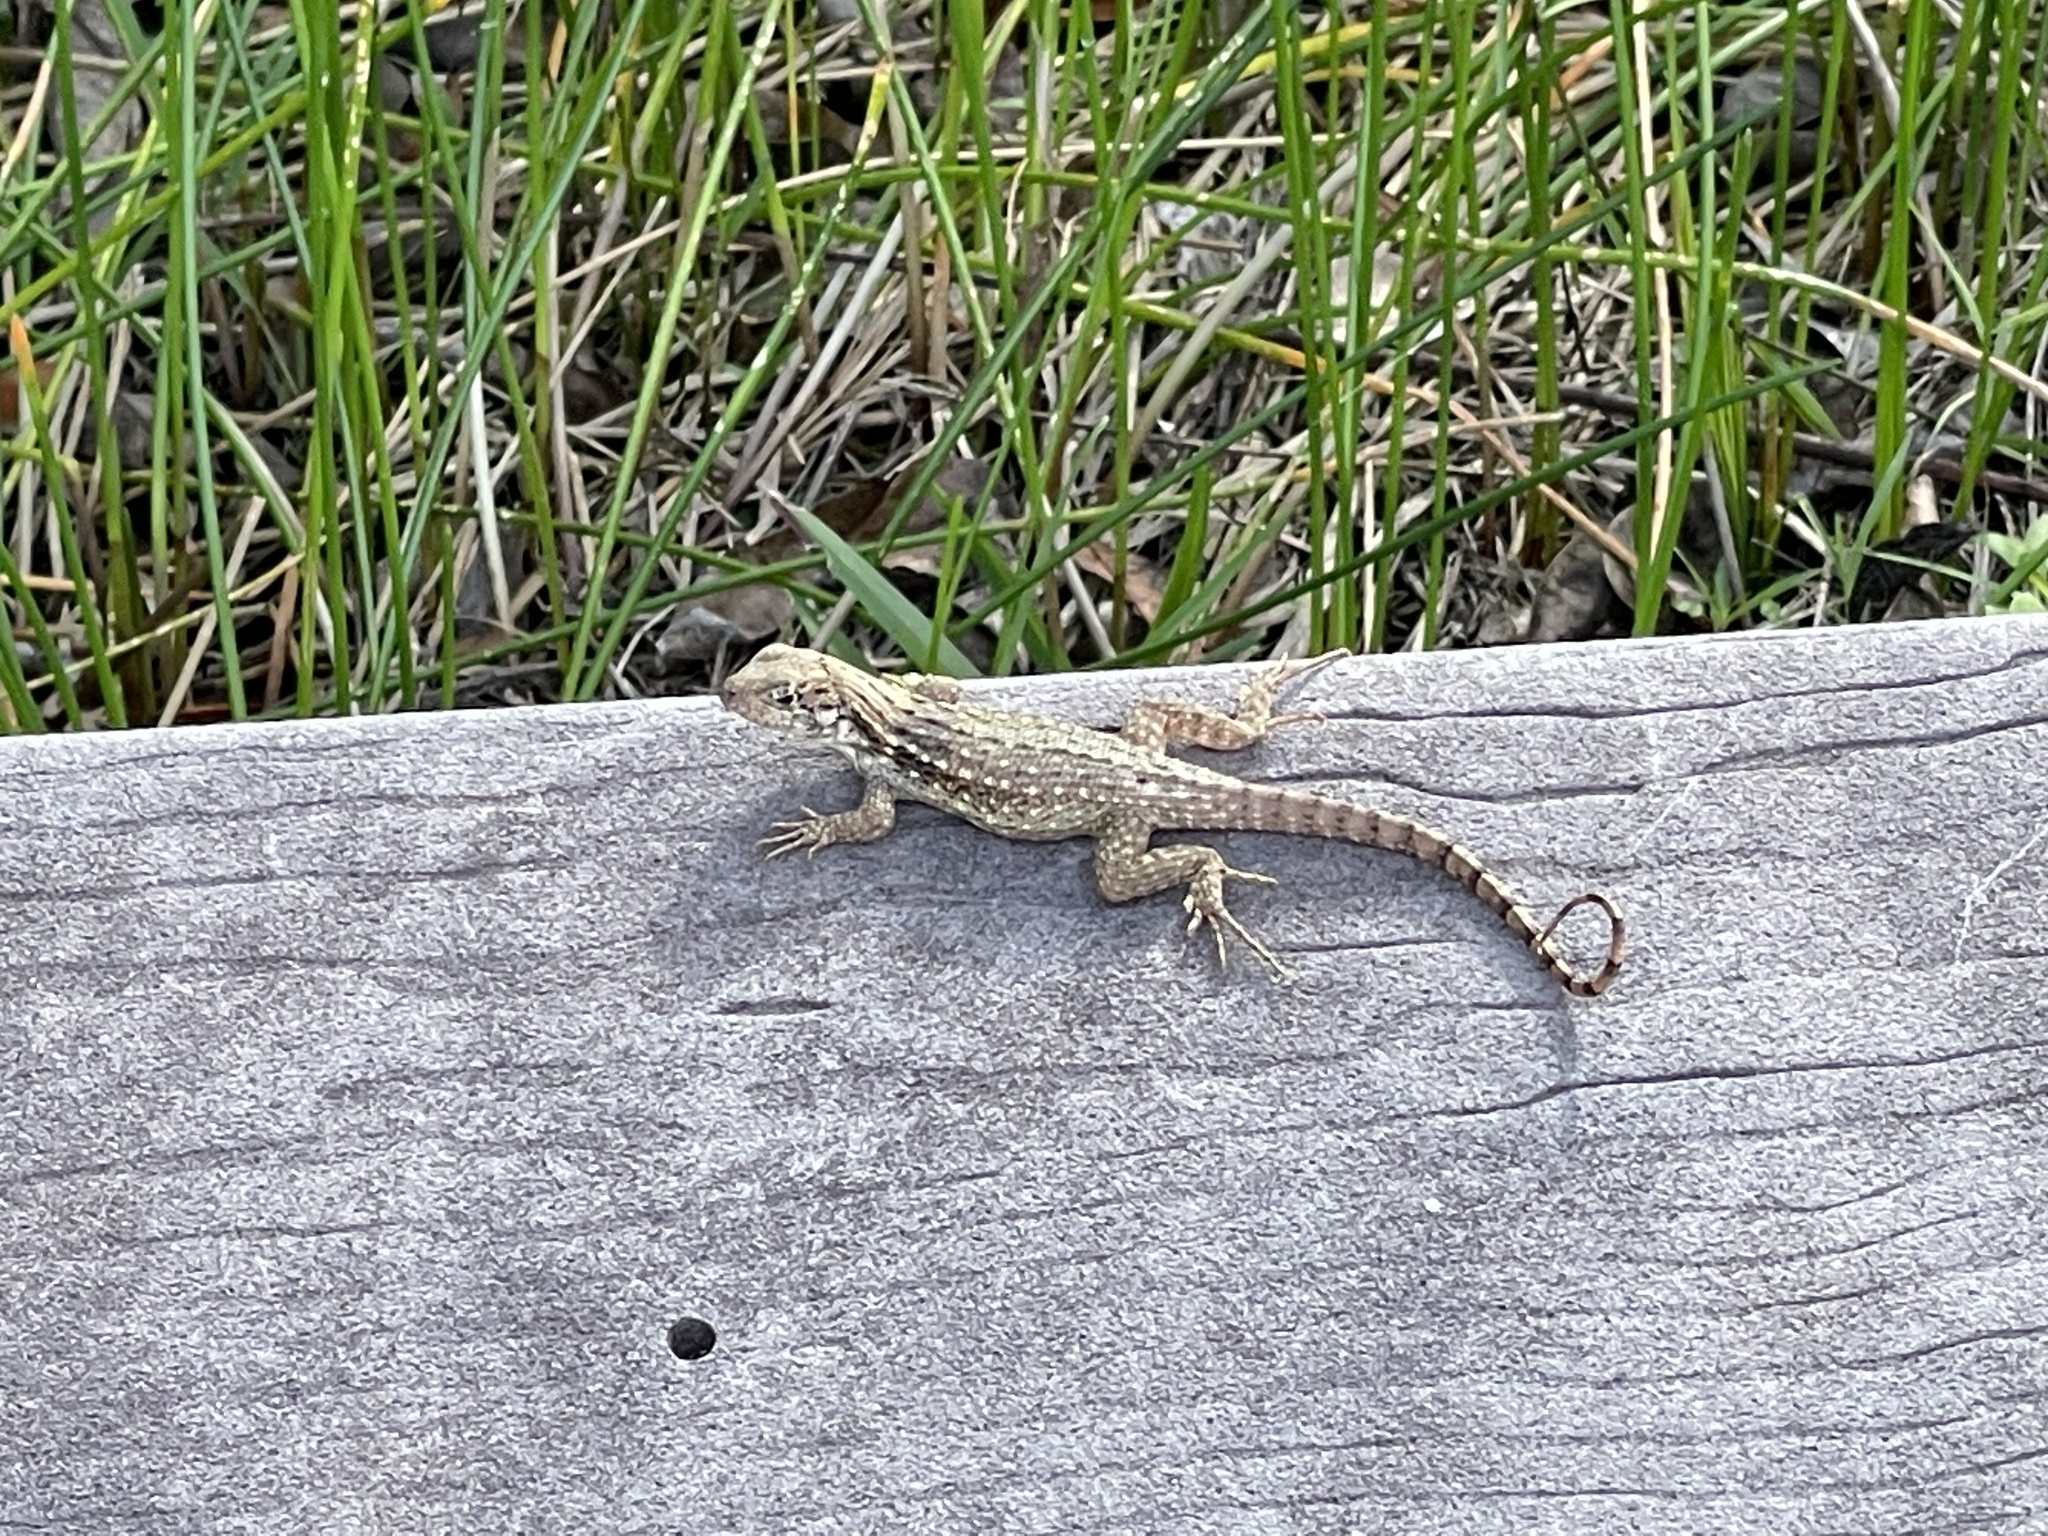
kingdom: Animalia
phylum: Chordata
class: Squamata
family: Leiocephalidae
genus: Leiocephalus
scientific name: Leiocephalus carinatus
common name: Northern curly-tailed lizard
